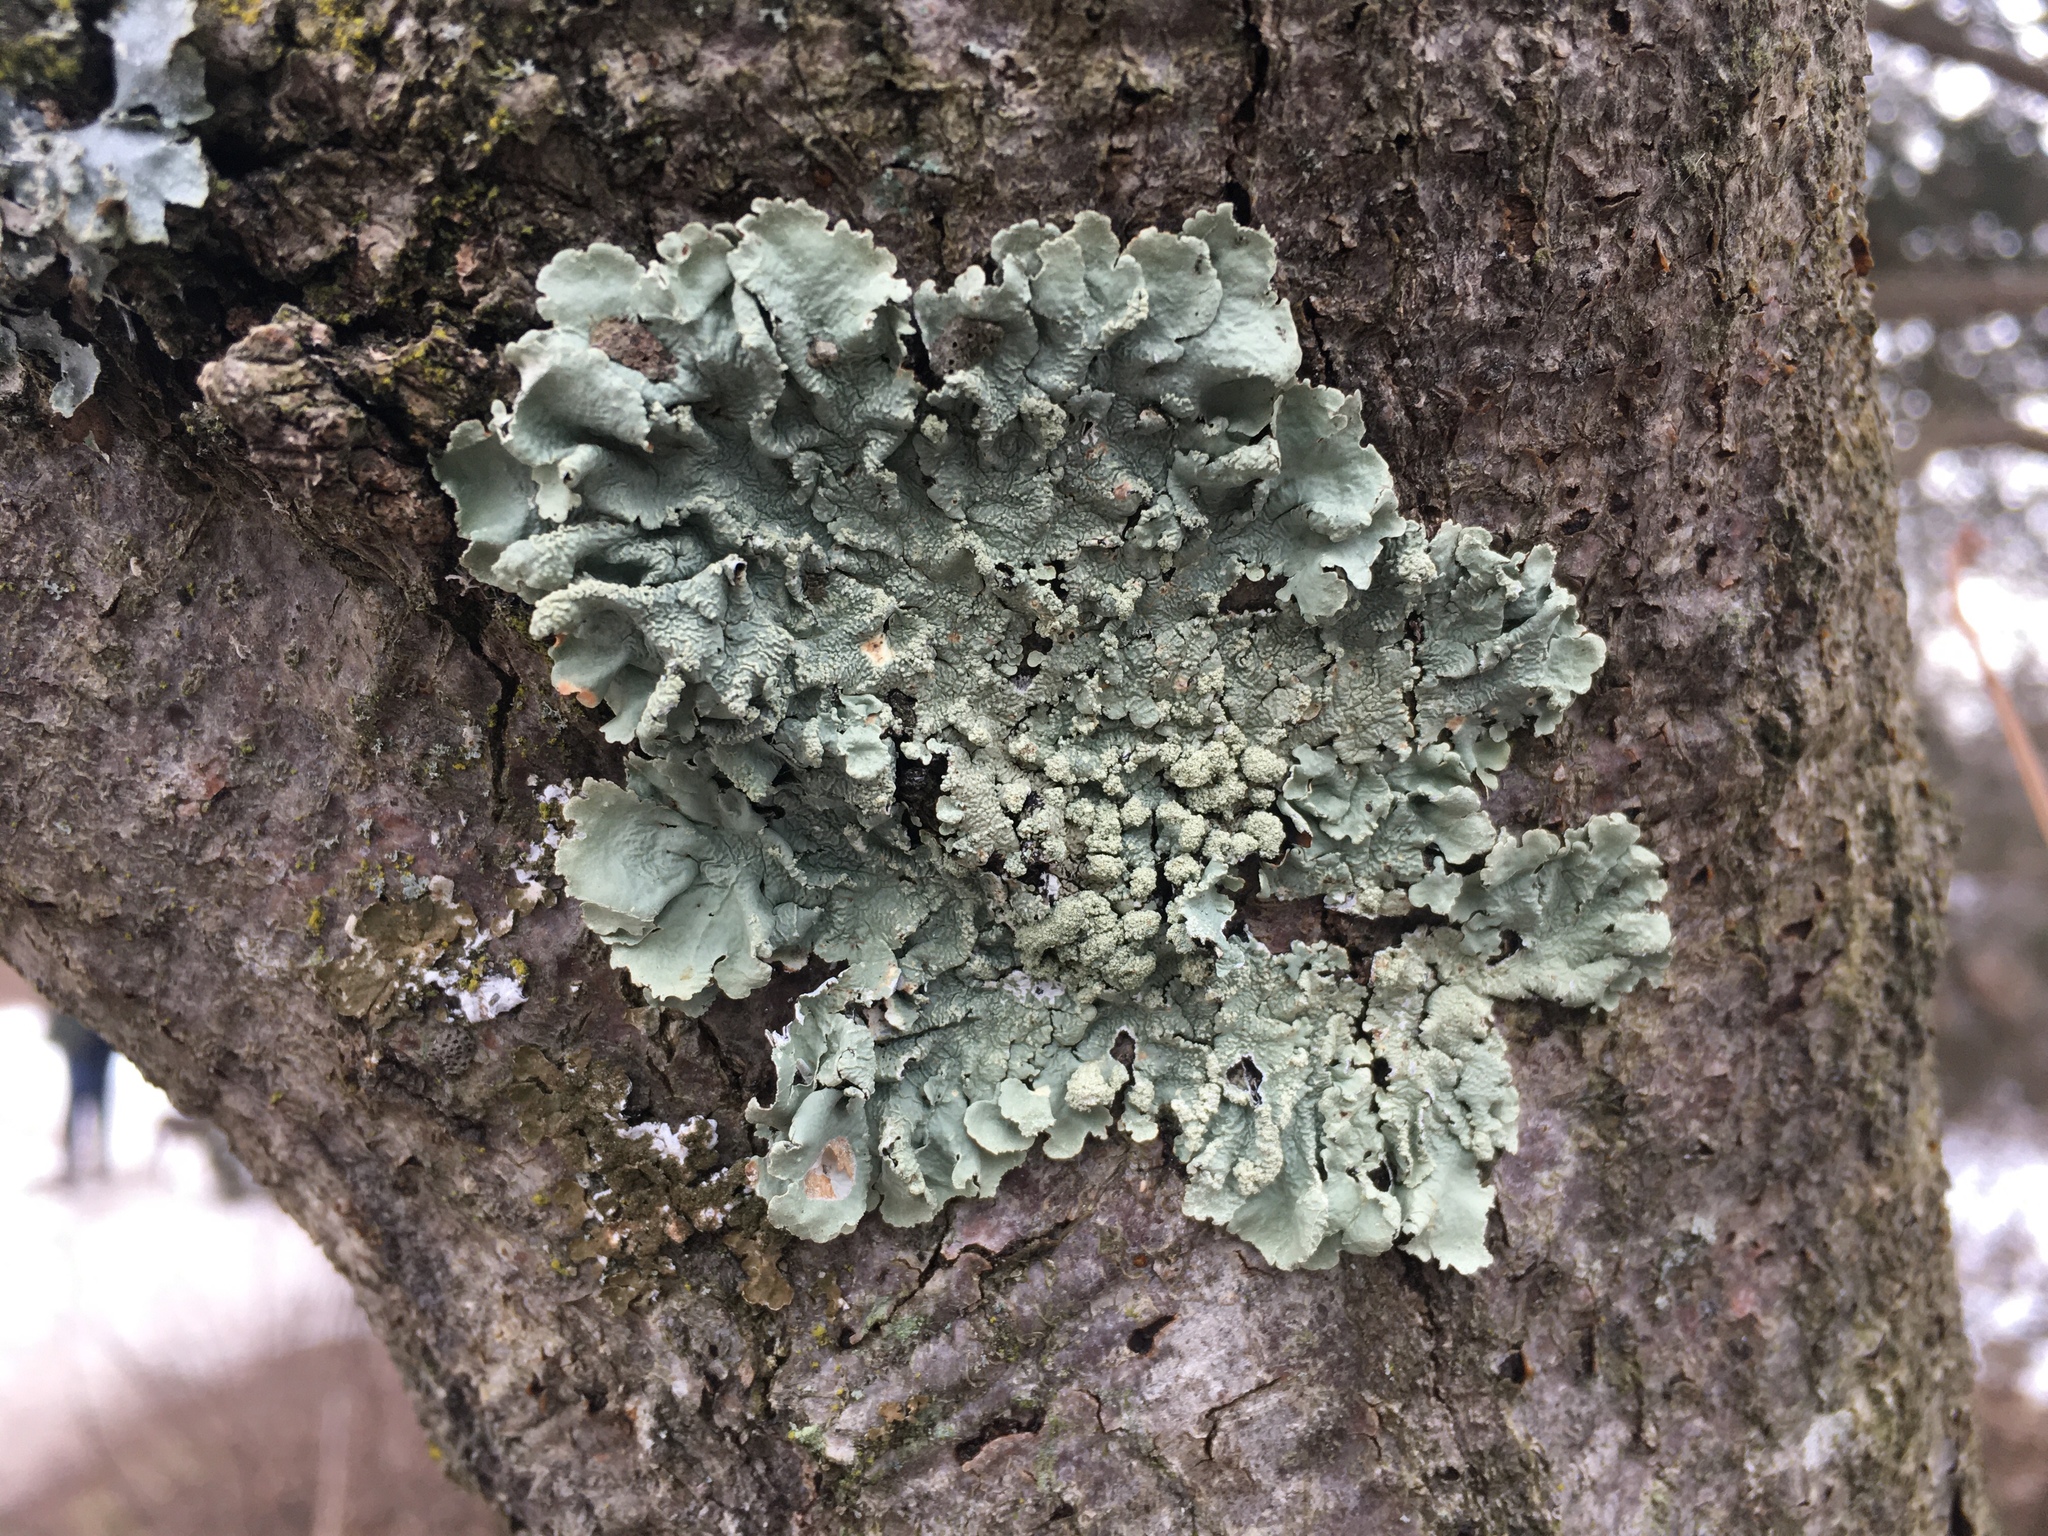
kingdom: Fungi
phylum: Ascomycota
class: Lecanoromycetes
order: Lecanorales
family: Parmeliaceae
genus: Flavoparmelia
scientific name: Flavoparmelia caperata
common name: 40-mile per hour lichen
